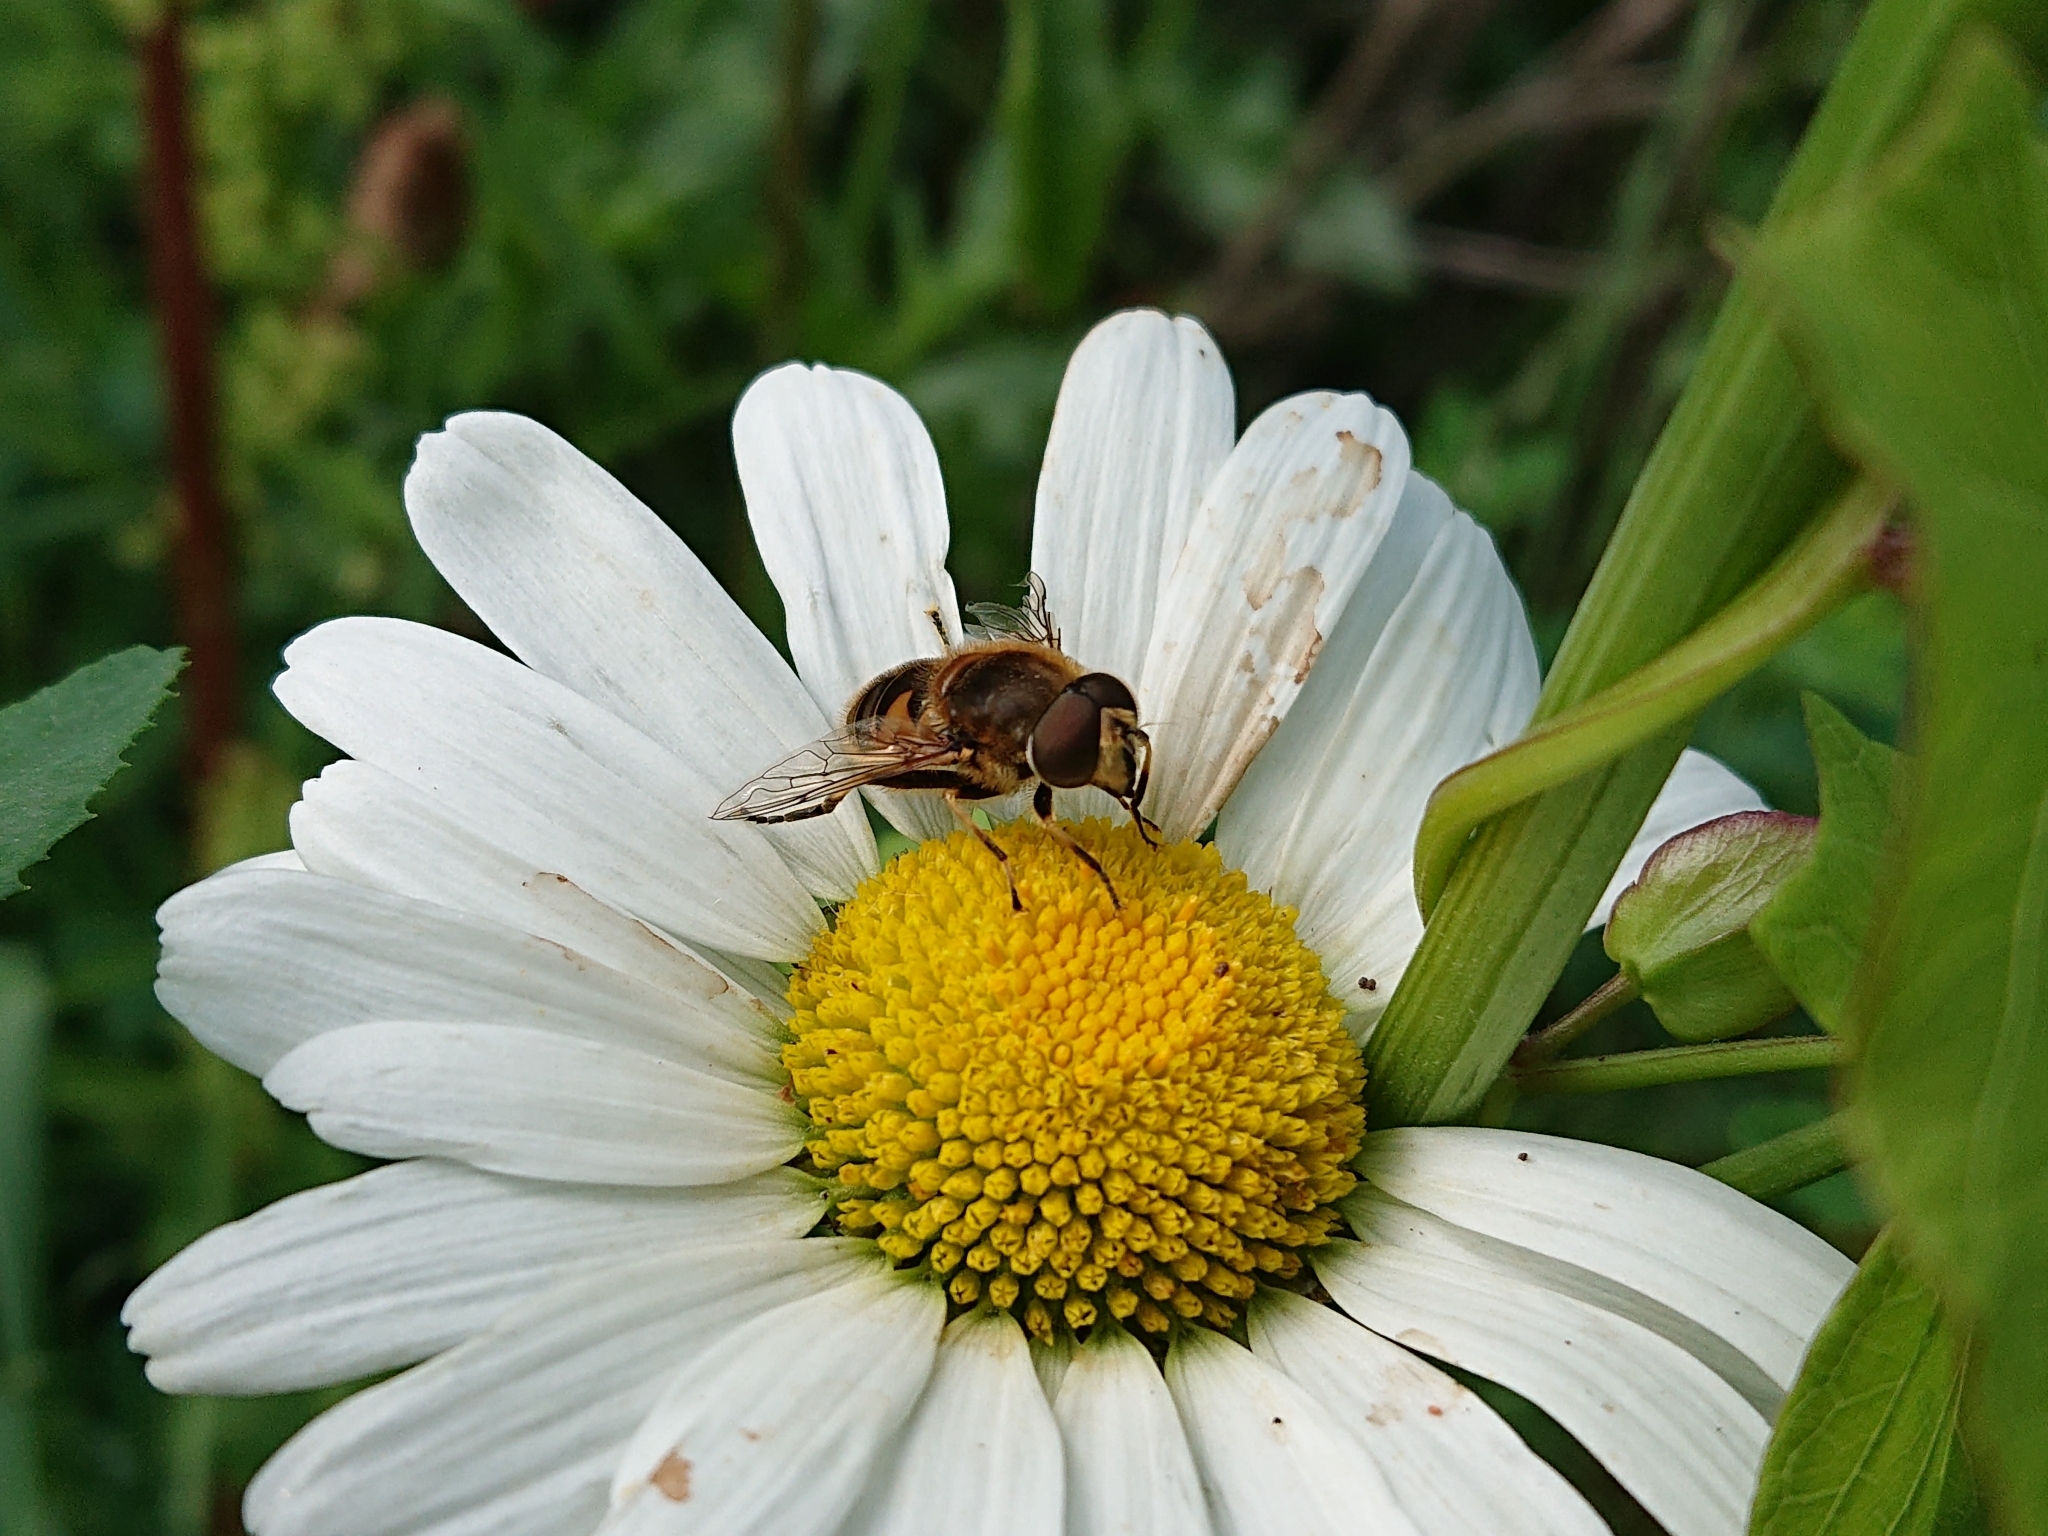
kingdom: Animalia
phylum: Arthropoda
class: Insecta
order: Diptera
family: Syrphidae
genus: Eristalis
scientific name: Eristalis nemorum
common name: Orange-spined drone fly
